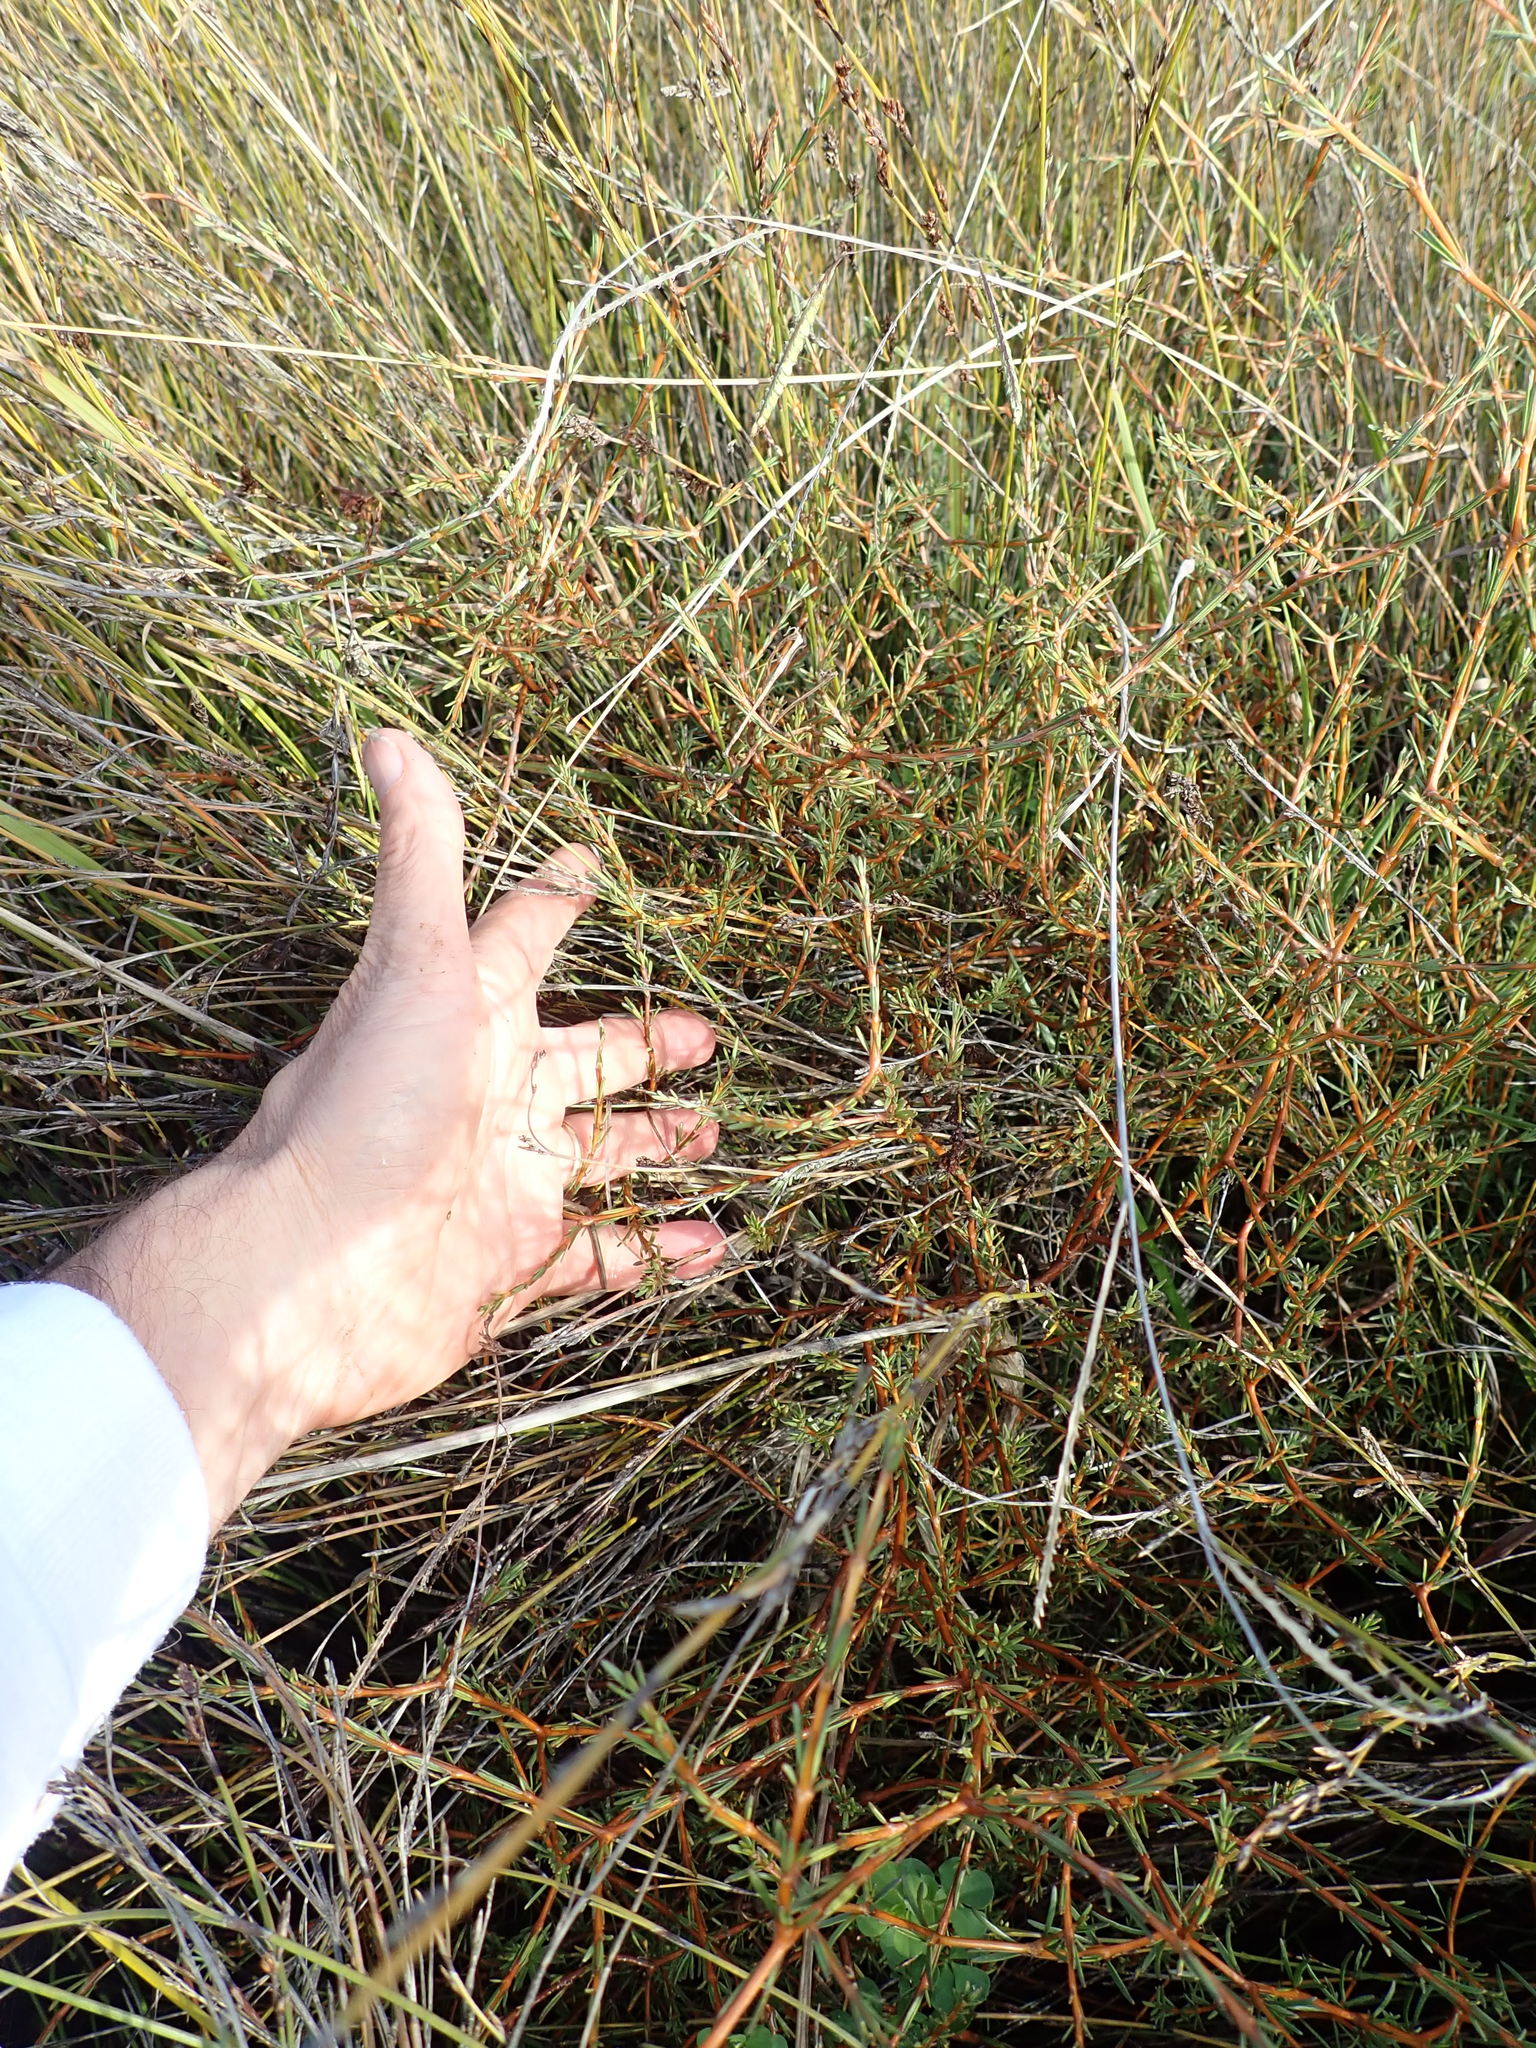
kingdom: Plantae
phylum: Tracheophyta
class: Magnoliopsida
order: Gentianales
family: Rubiaceae
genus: Coprosma
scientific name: Coprosma acerosa
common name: Sand coprosma
